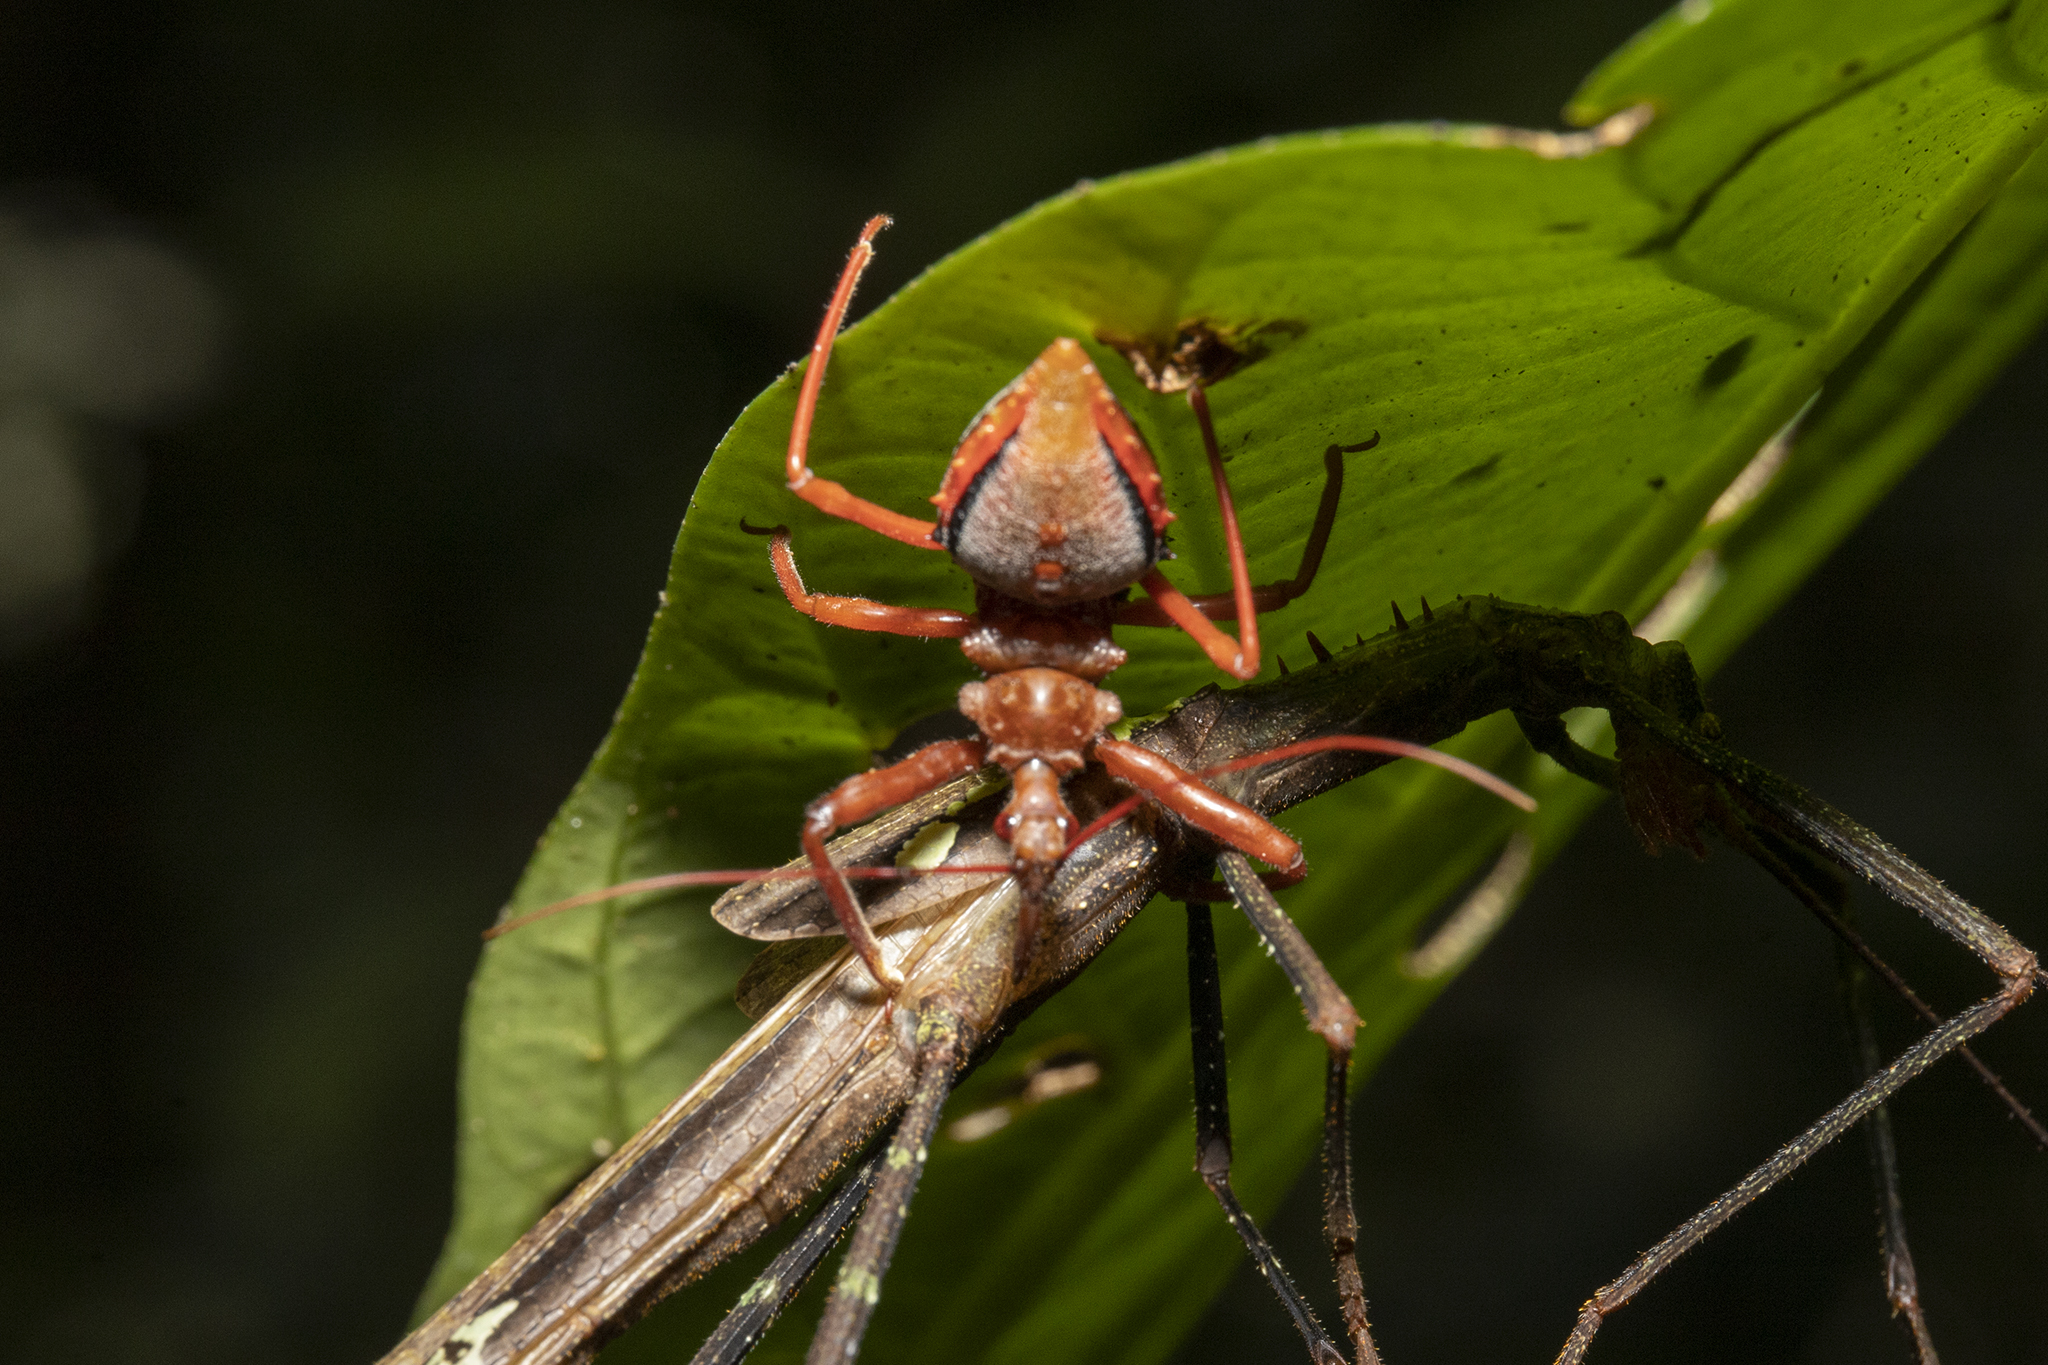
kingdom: Animalia
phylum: Arthropoda
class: Insecta
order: Hemiptera
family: Reduviidae
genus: Erbessus
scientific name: Erbessus grossus
